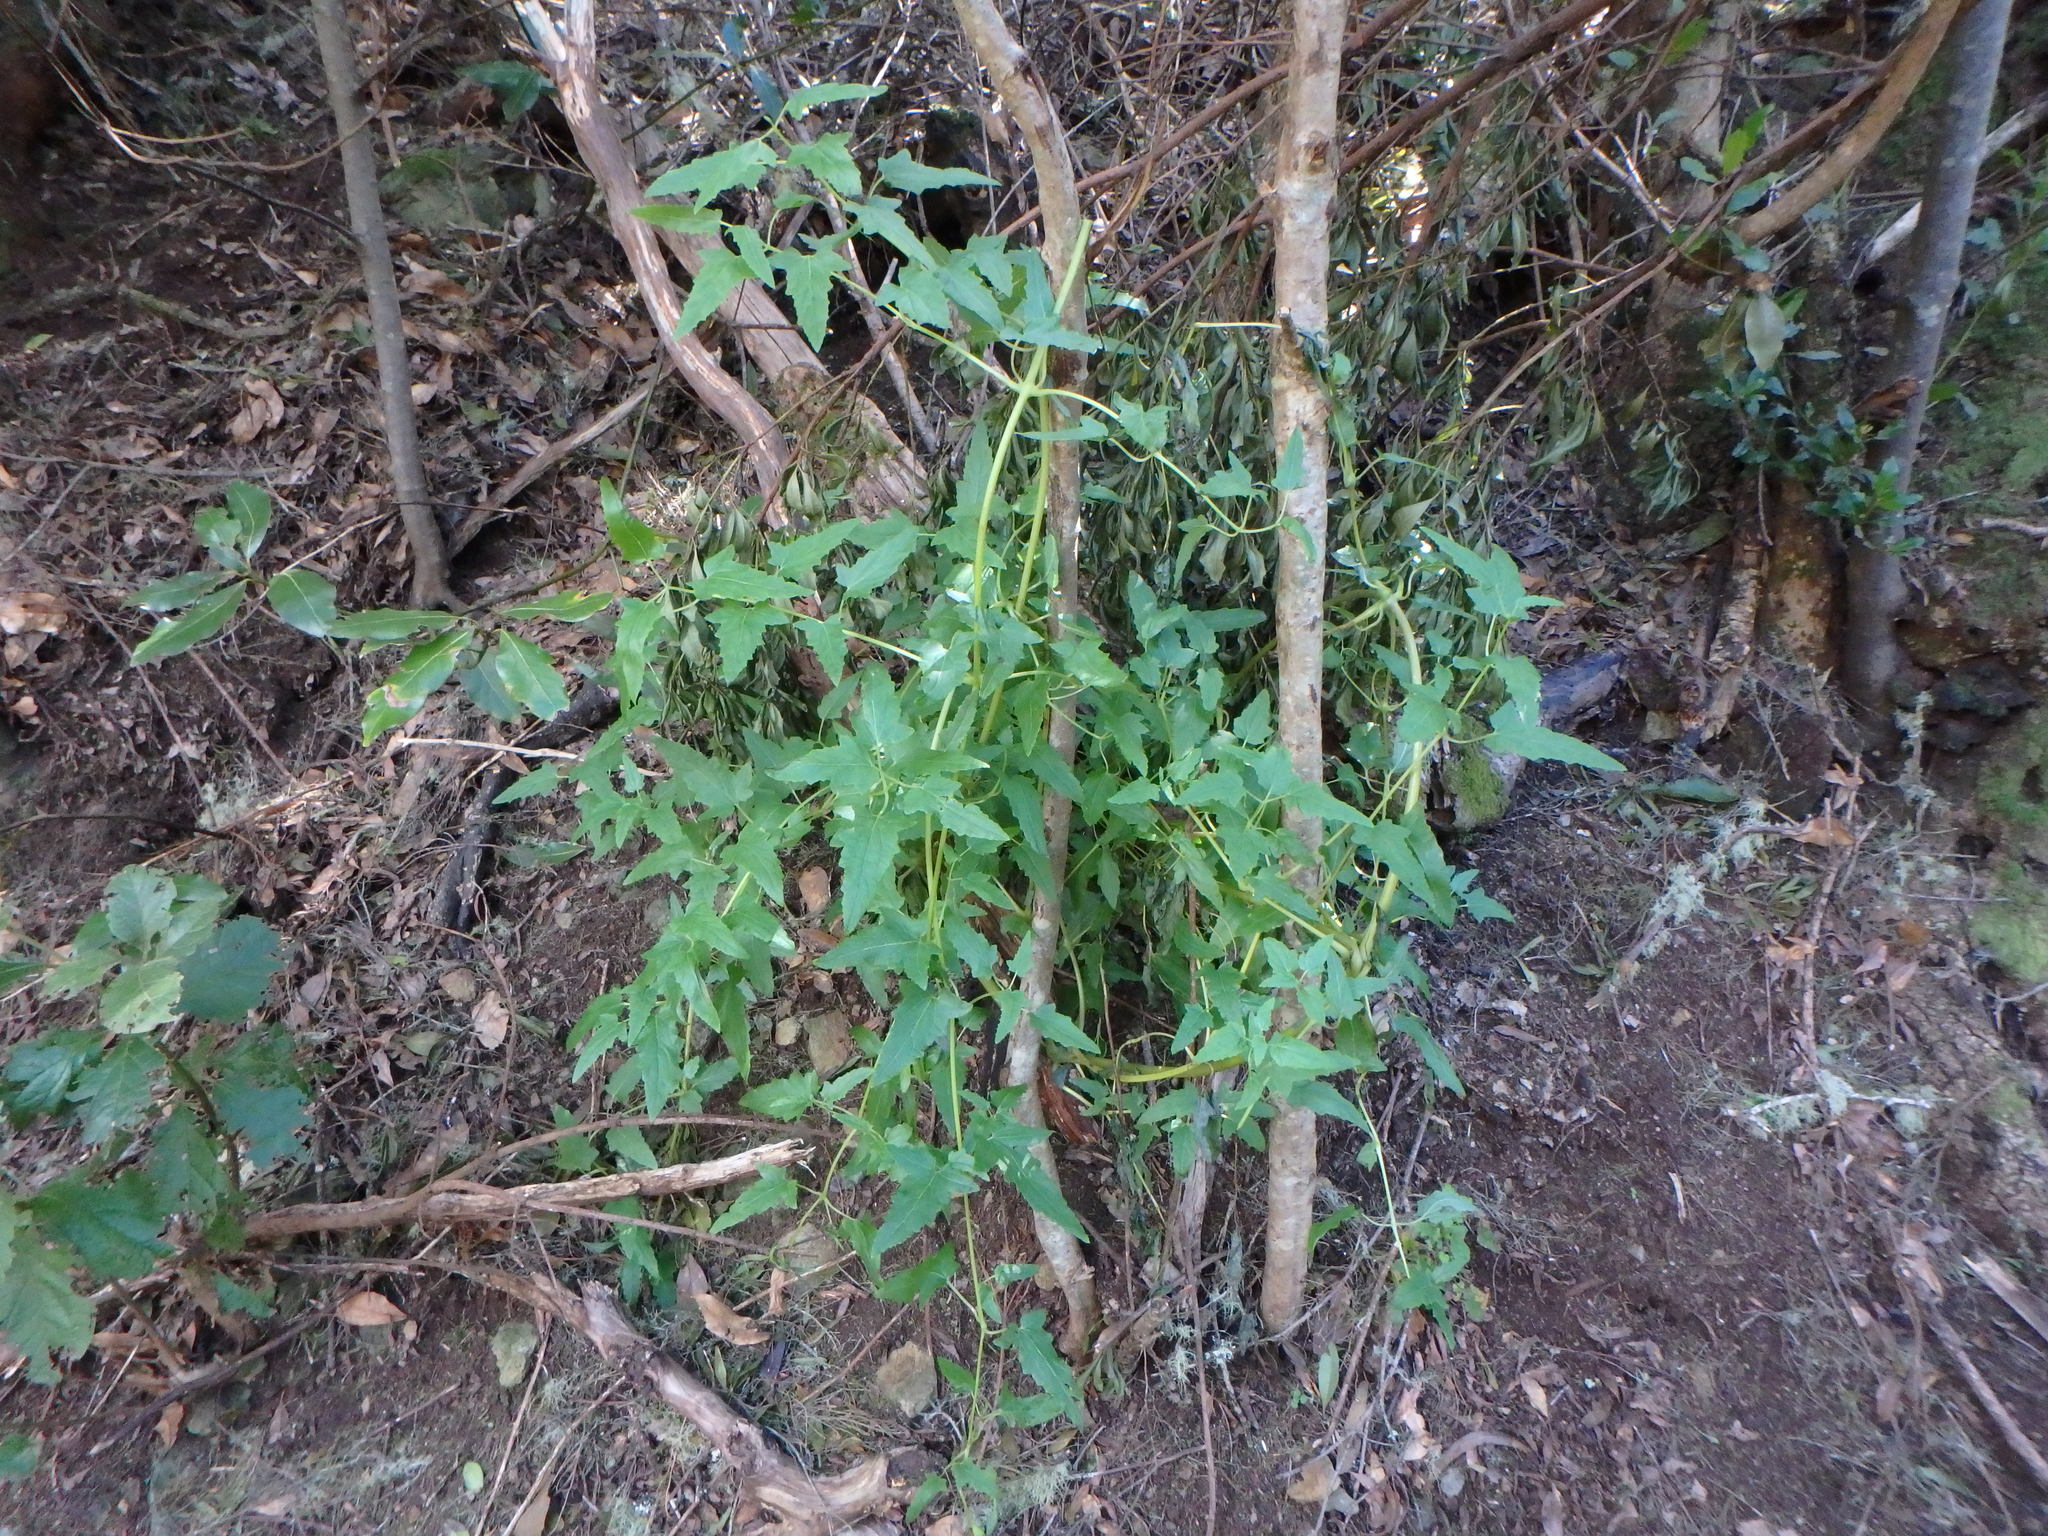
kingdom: Plantae
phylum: Tracheophyta
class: Magnoliopsida
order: Asterales
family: Campanulaceae
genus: Canarina
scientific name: Canarina canariensis
